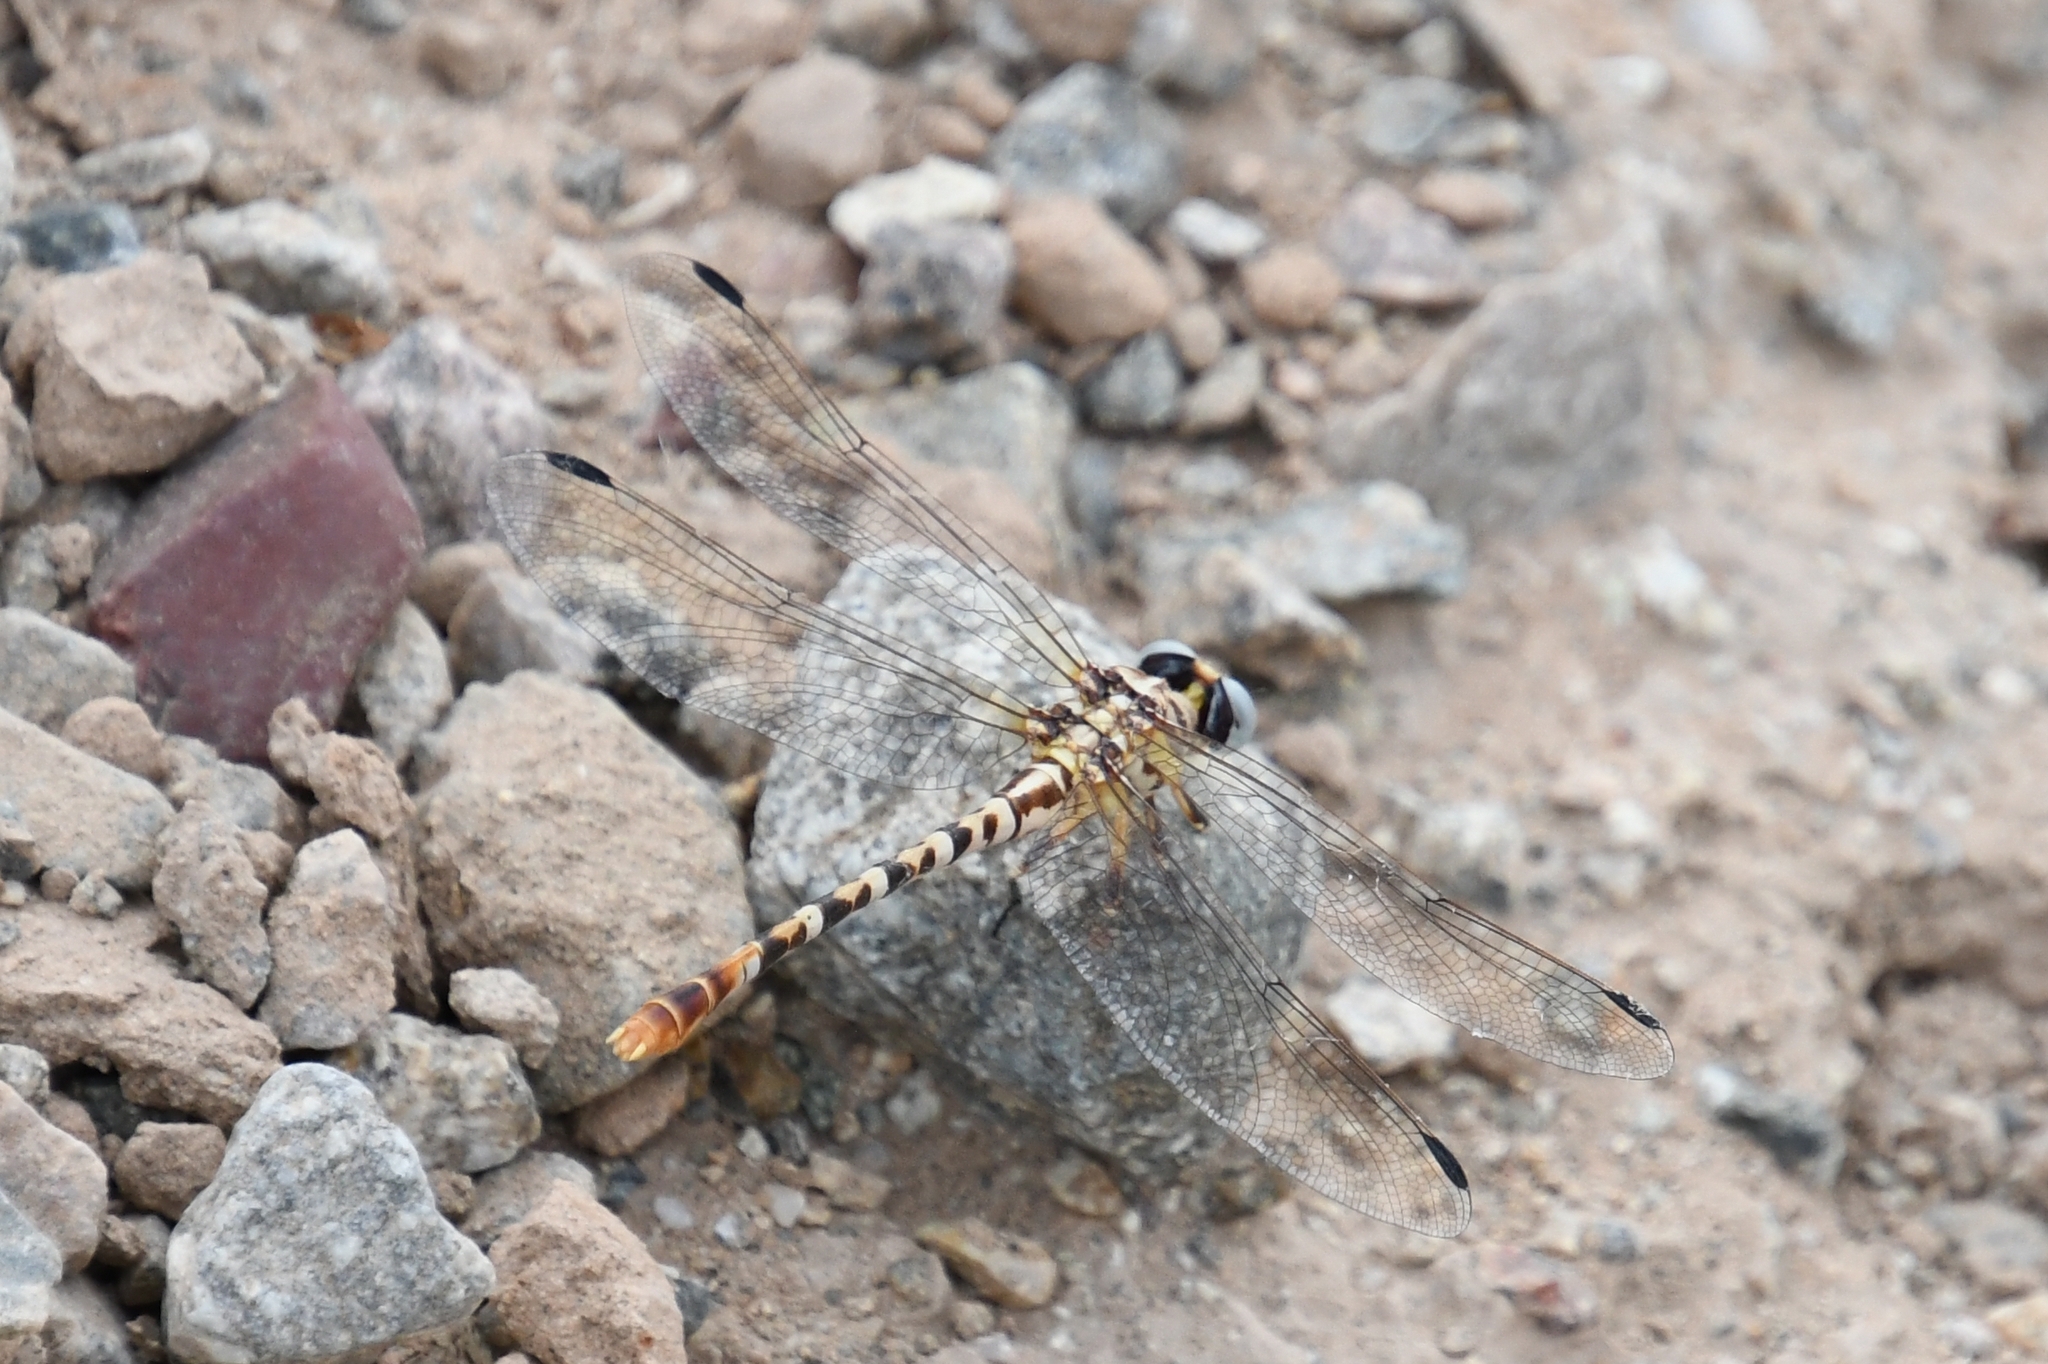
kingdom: Animalia
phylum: Arthropoda
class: Insecta
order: Odonata
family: Gomphidae
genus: Erpetogomphus
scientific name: Erpetogomphus compositus
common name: White-belted ringtail
